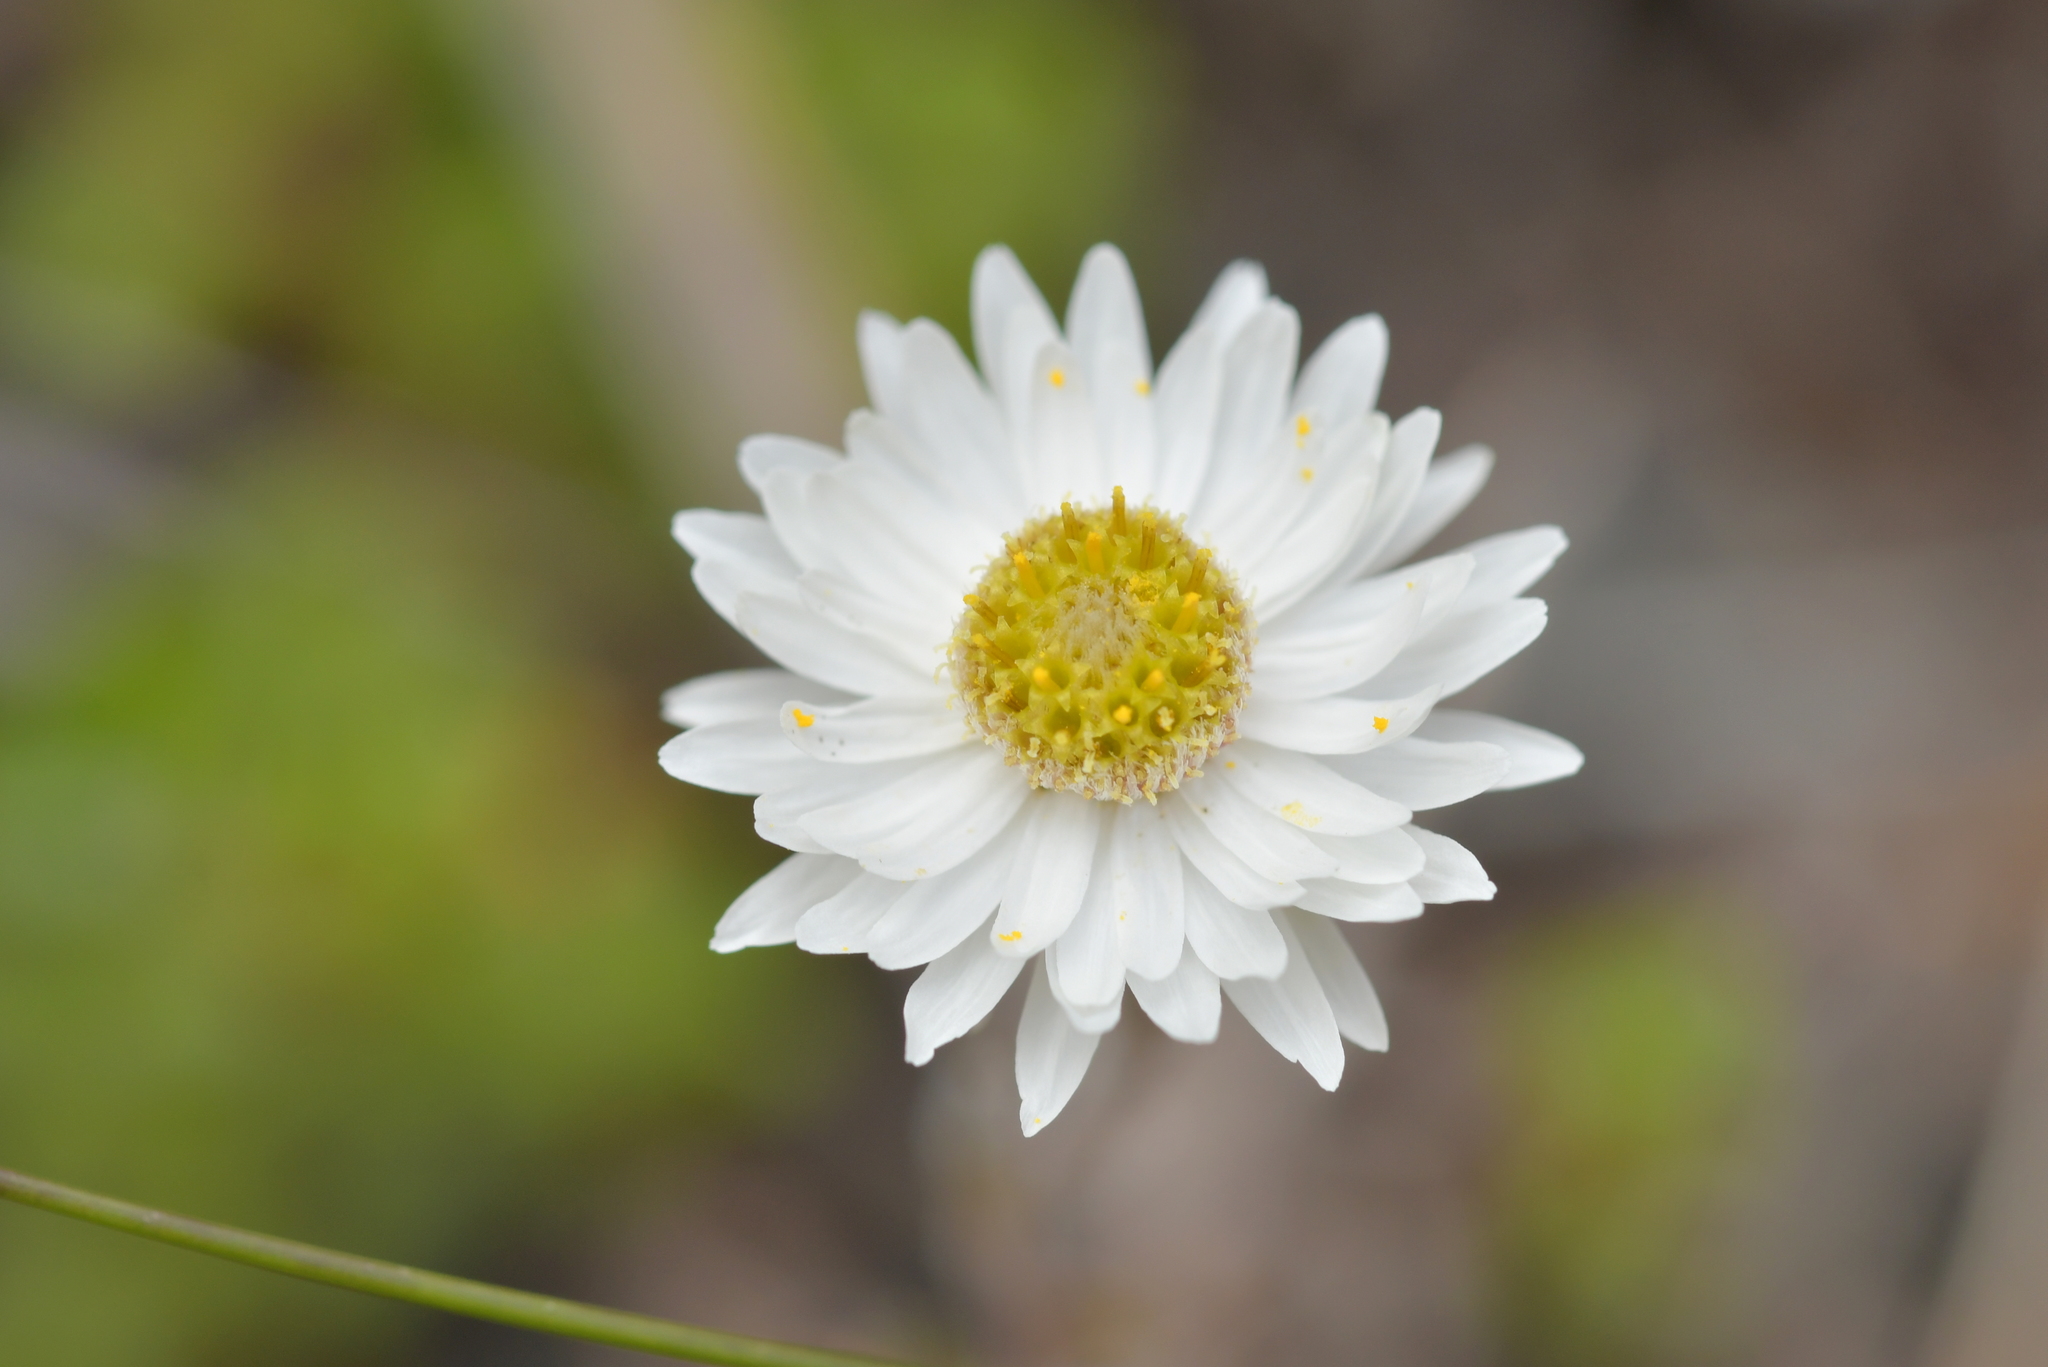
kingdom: Plantae
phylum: Tracheophyta
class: Magnoliopsida
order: Asterales
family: Asteraceae
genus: Anaphalioides
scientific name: Anaphalioides bellidioides
